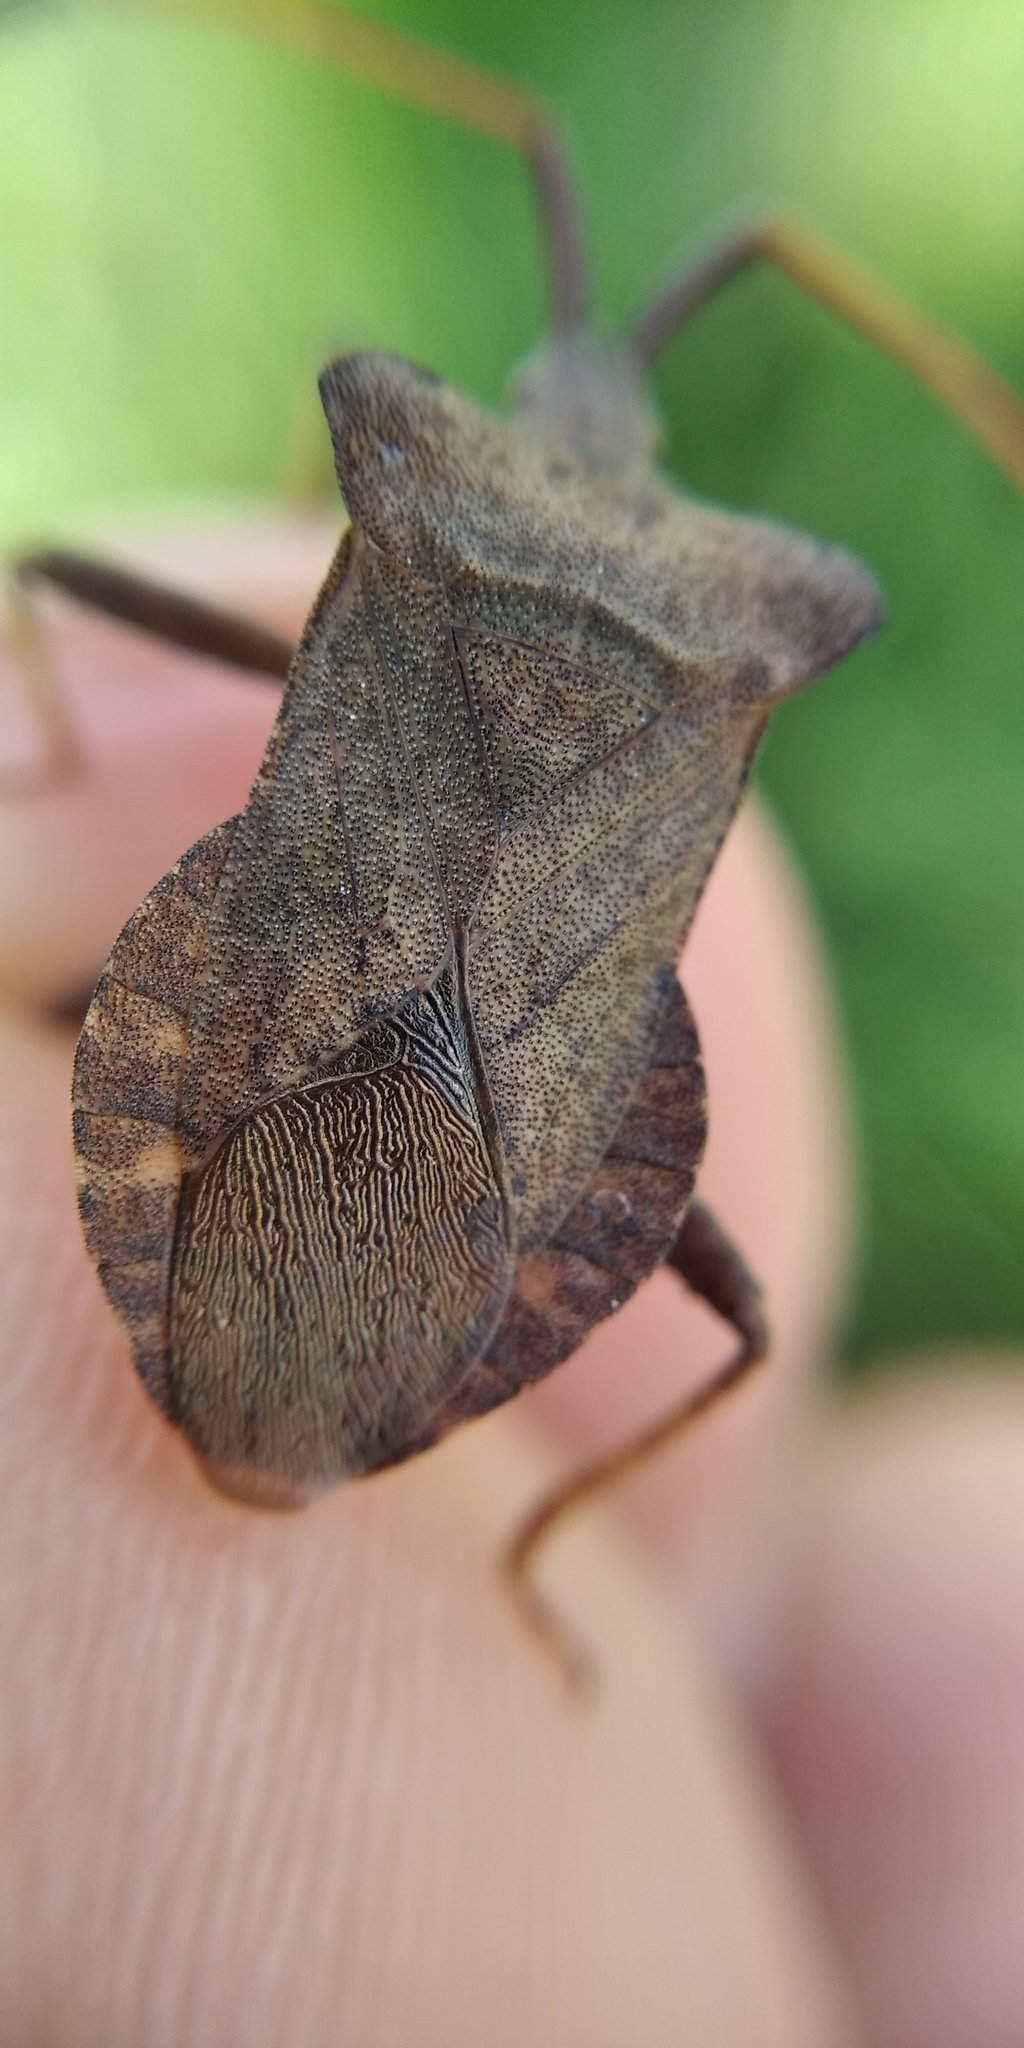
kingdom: Animalia
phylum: Arthropoda
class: Insecta
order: Hemiptera
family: Coreidae
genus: Coreus
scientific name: Coreus marginatus
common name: Dock bug
